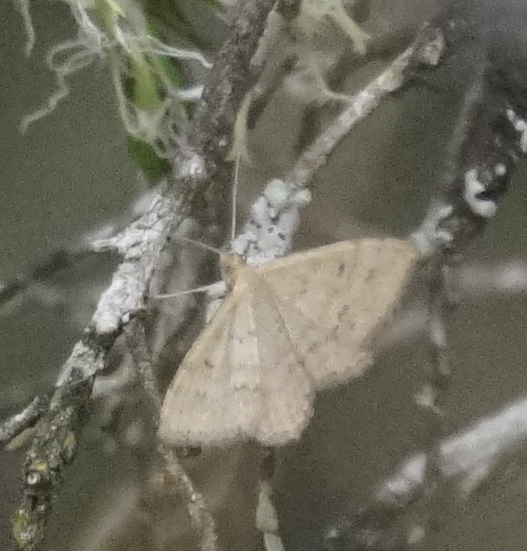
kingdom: Animalia
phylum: Arthropoda
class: Insecta
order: Lepidoptera
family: Geometridae
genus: Scopula
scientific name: Scopula rubraria
